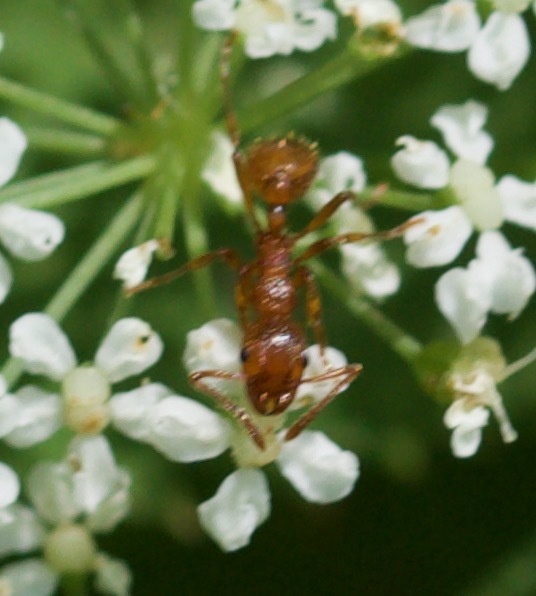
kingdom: Animalia
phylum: Arthropoda
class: Insecta
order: Hymenoptera
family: Formicidae
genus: Myrmica
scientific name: Myrmica rubra
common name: European fire ant
